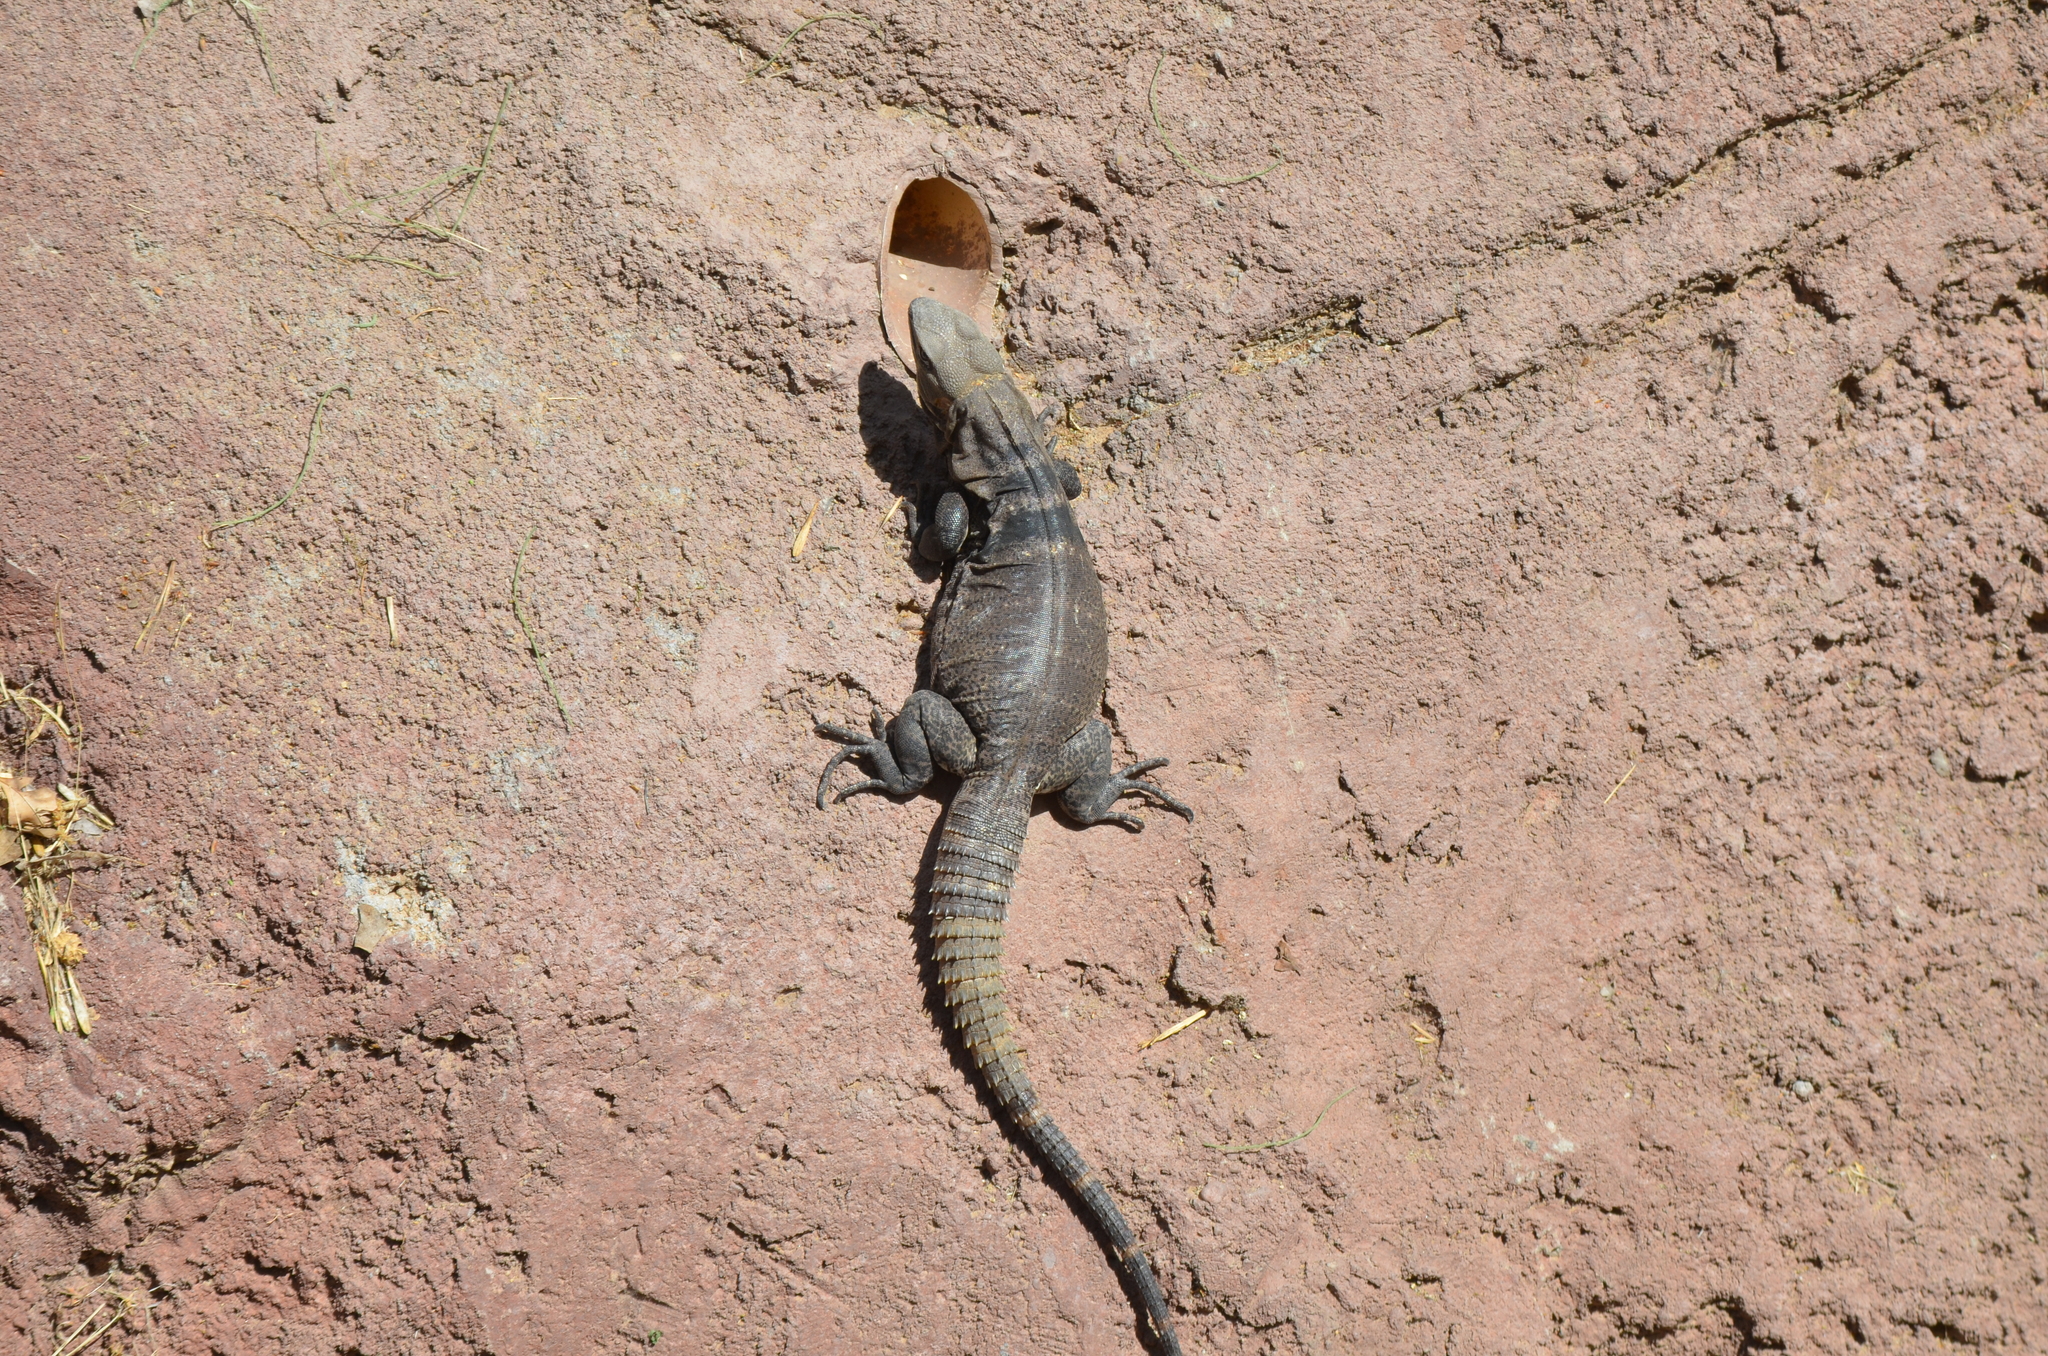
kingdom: Animalia
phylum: Chordata
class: Squamata
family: Iguanidae
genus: Ctenosaura
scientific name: Ctenosaura
